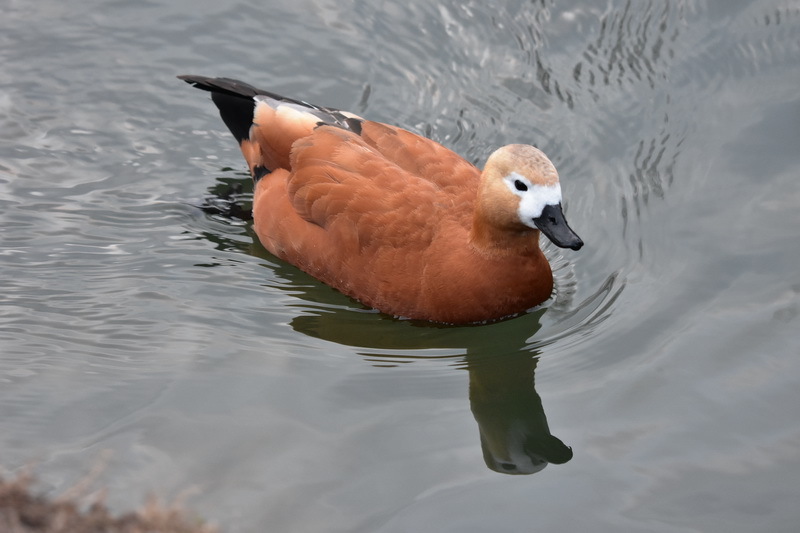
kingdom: Animalia
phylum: Chordata
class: Aves
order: Anseriformes
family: Anatidae
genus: Tadorna
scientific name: Tadorna ferruginea
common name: Ruddy shelduck
